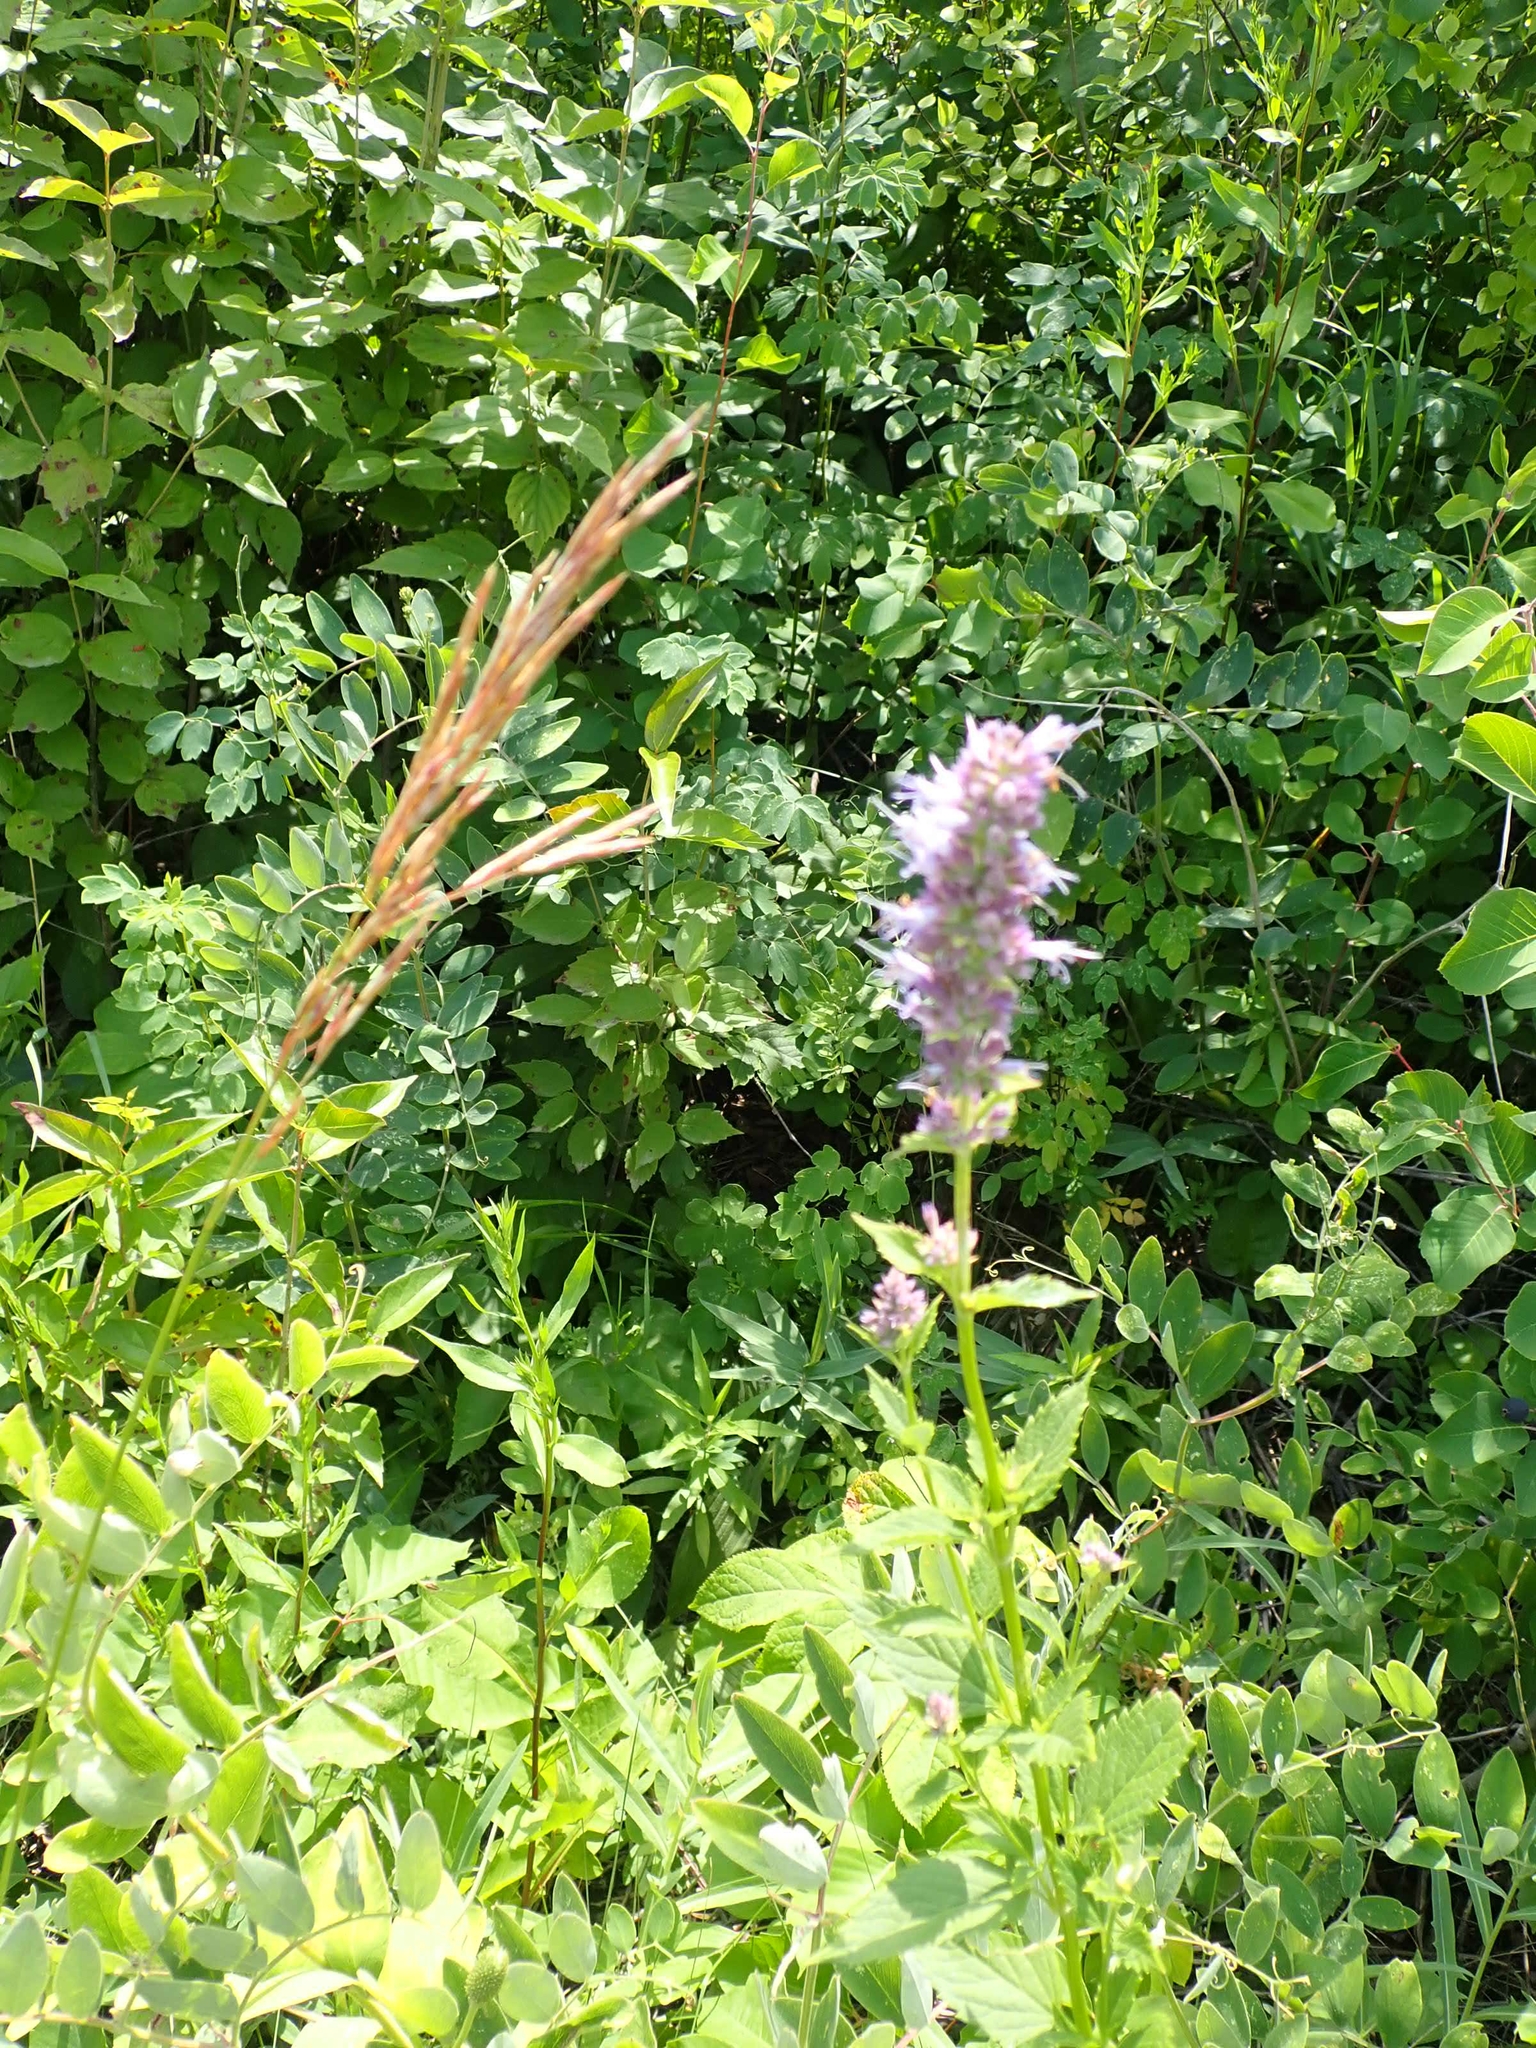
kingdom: Plantae
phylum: Tracheophyta
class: Magnoliopsida
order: Lamiales
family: Lamiaceae
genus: Agastache
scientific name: Agastache foeniculum
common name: Anise hyssop
